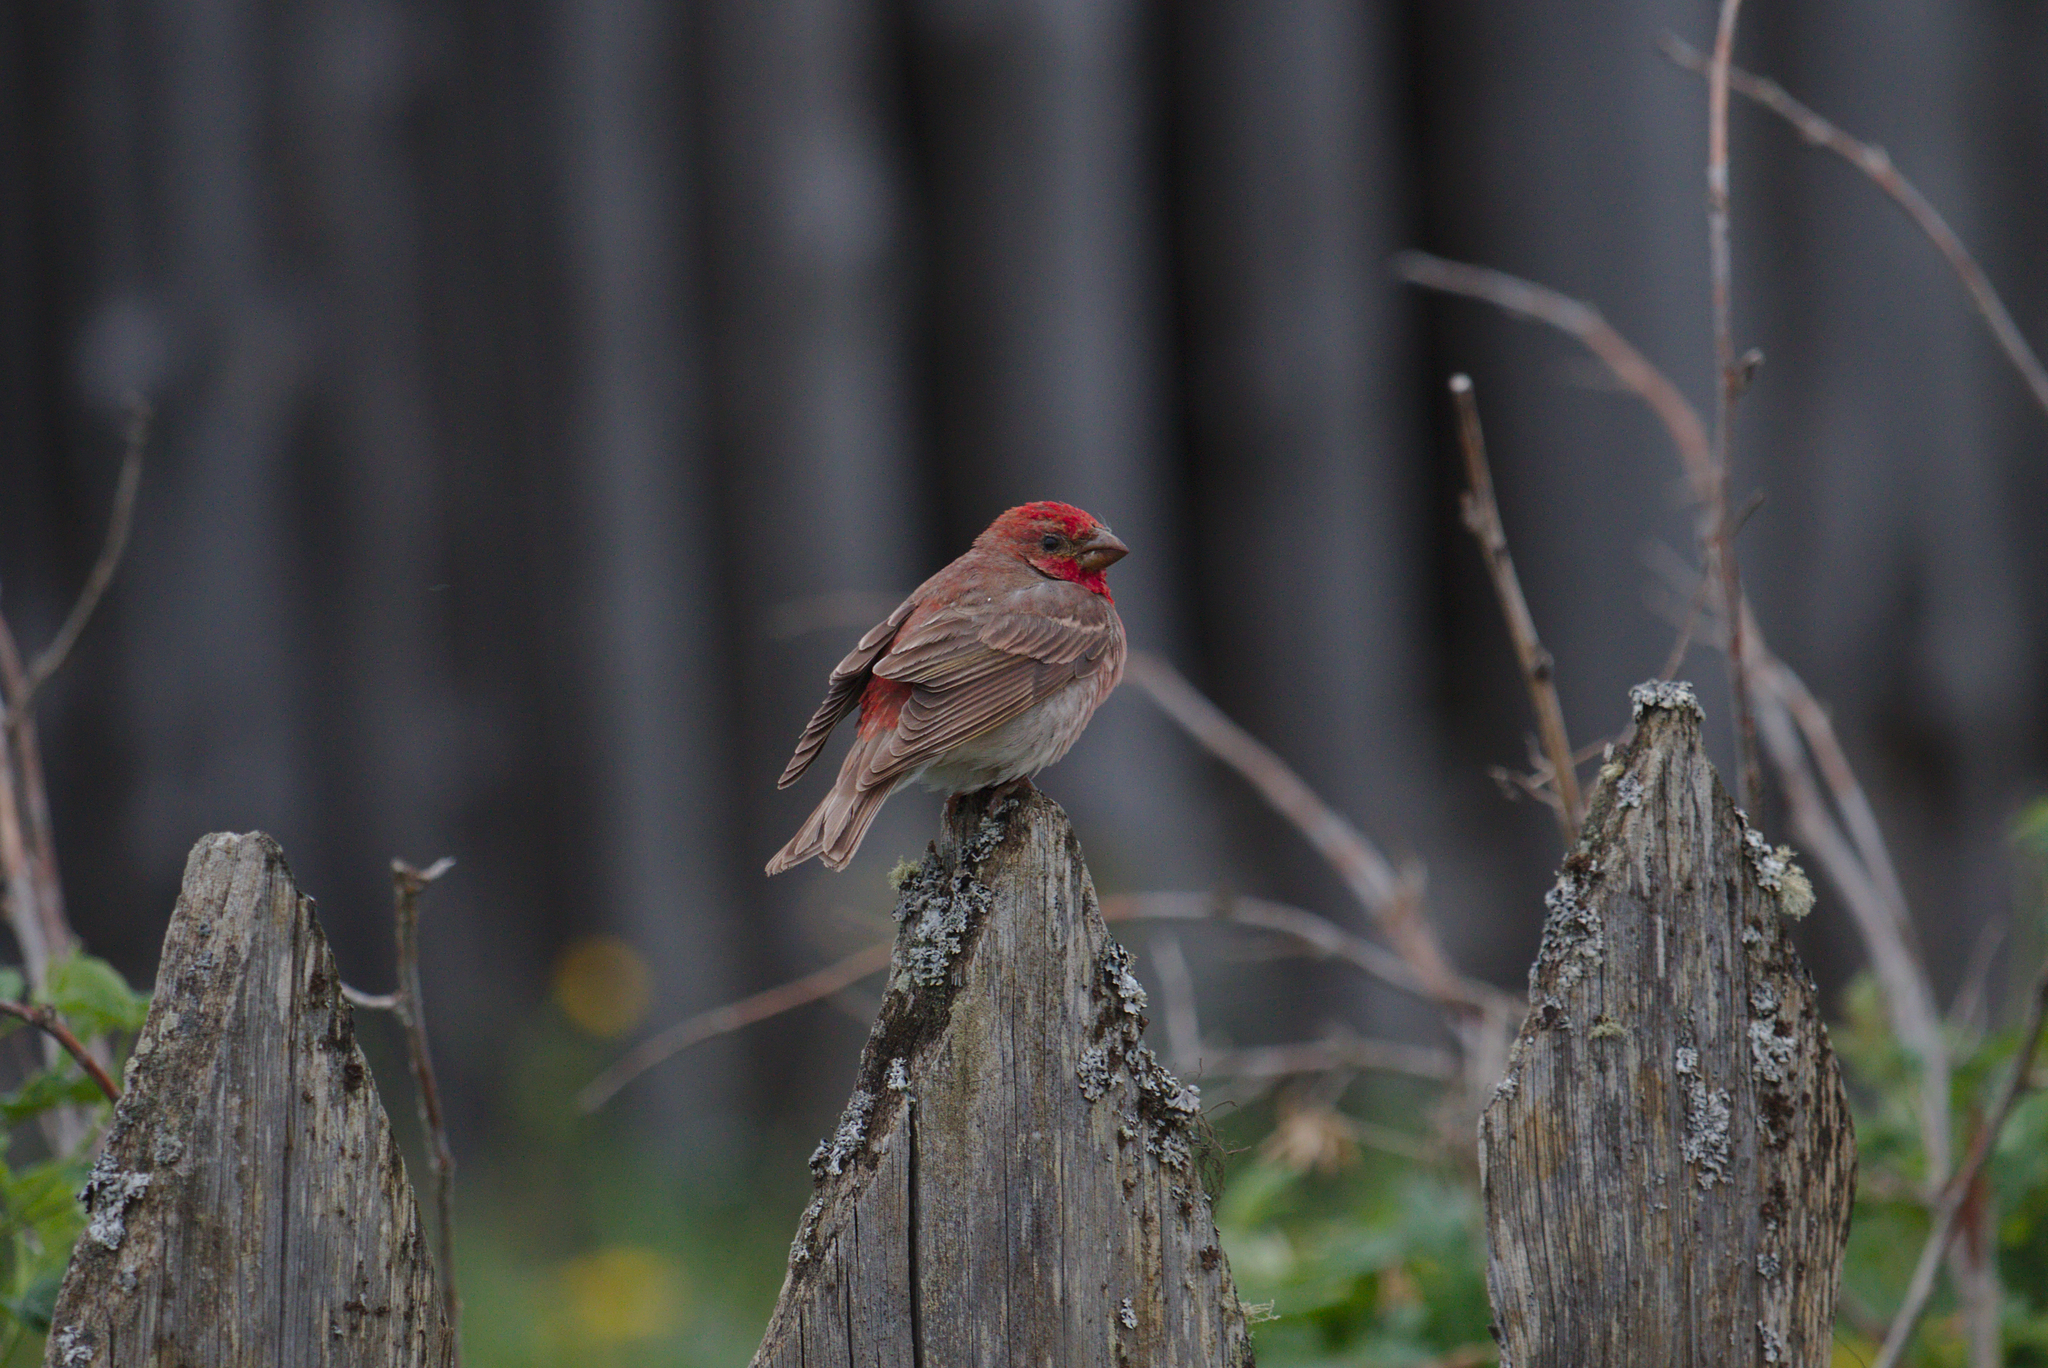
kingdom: Animalia
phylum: Chordata
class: Aves
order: Passeriformes
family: Fringillidae
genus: Carpodacus
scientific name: Carpodacus erythrinus
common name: Common rosefinch
